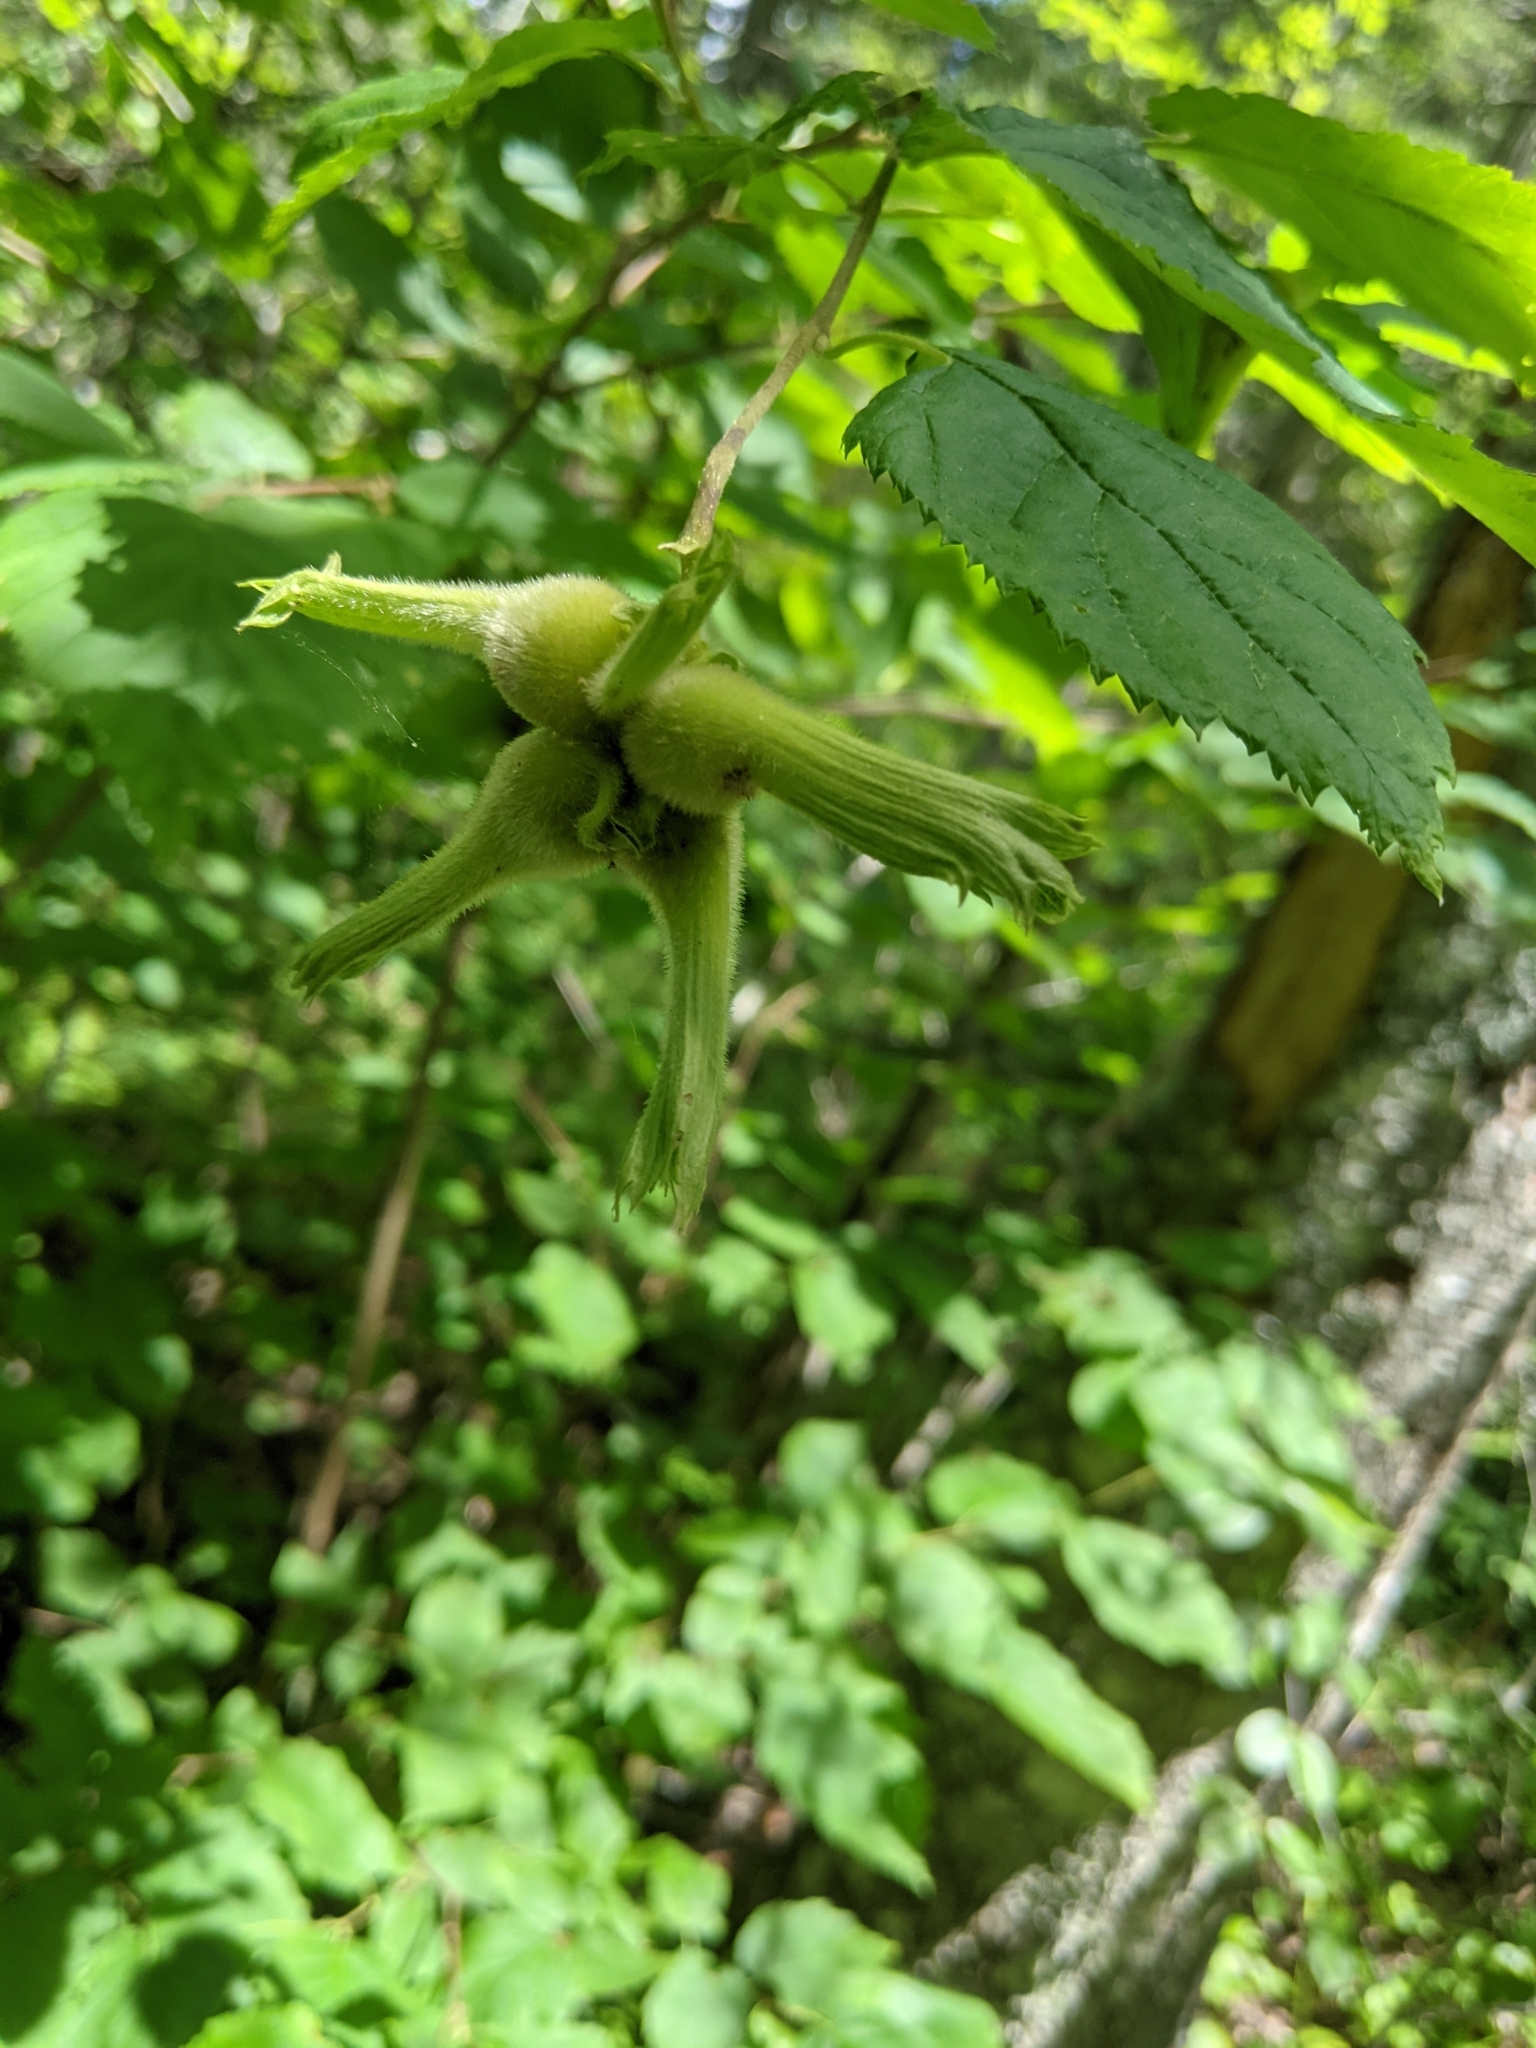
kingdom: Plantae
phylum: Tracheophyta
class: Magnoliopsida
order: Fagales
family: Betulaceae
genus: Corylus
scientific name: Corylus cornuta
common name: Beaked hazel
